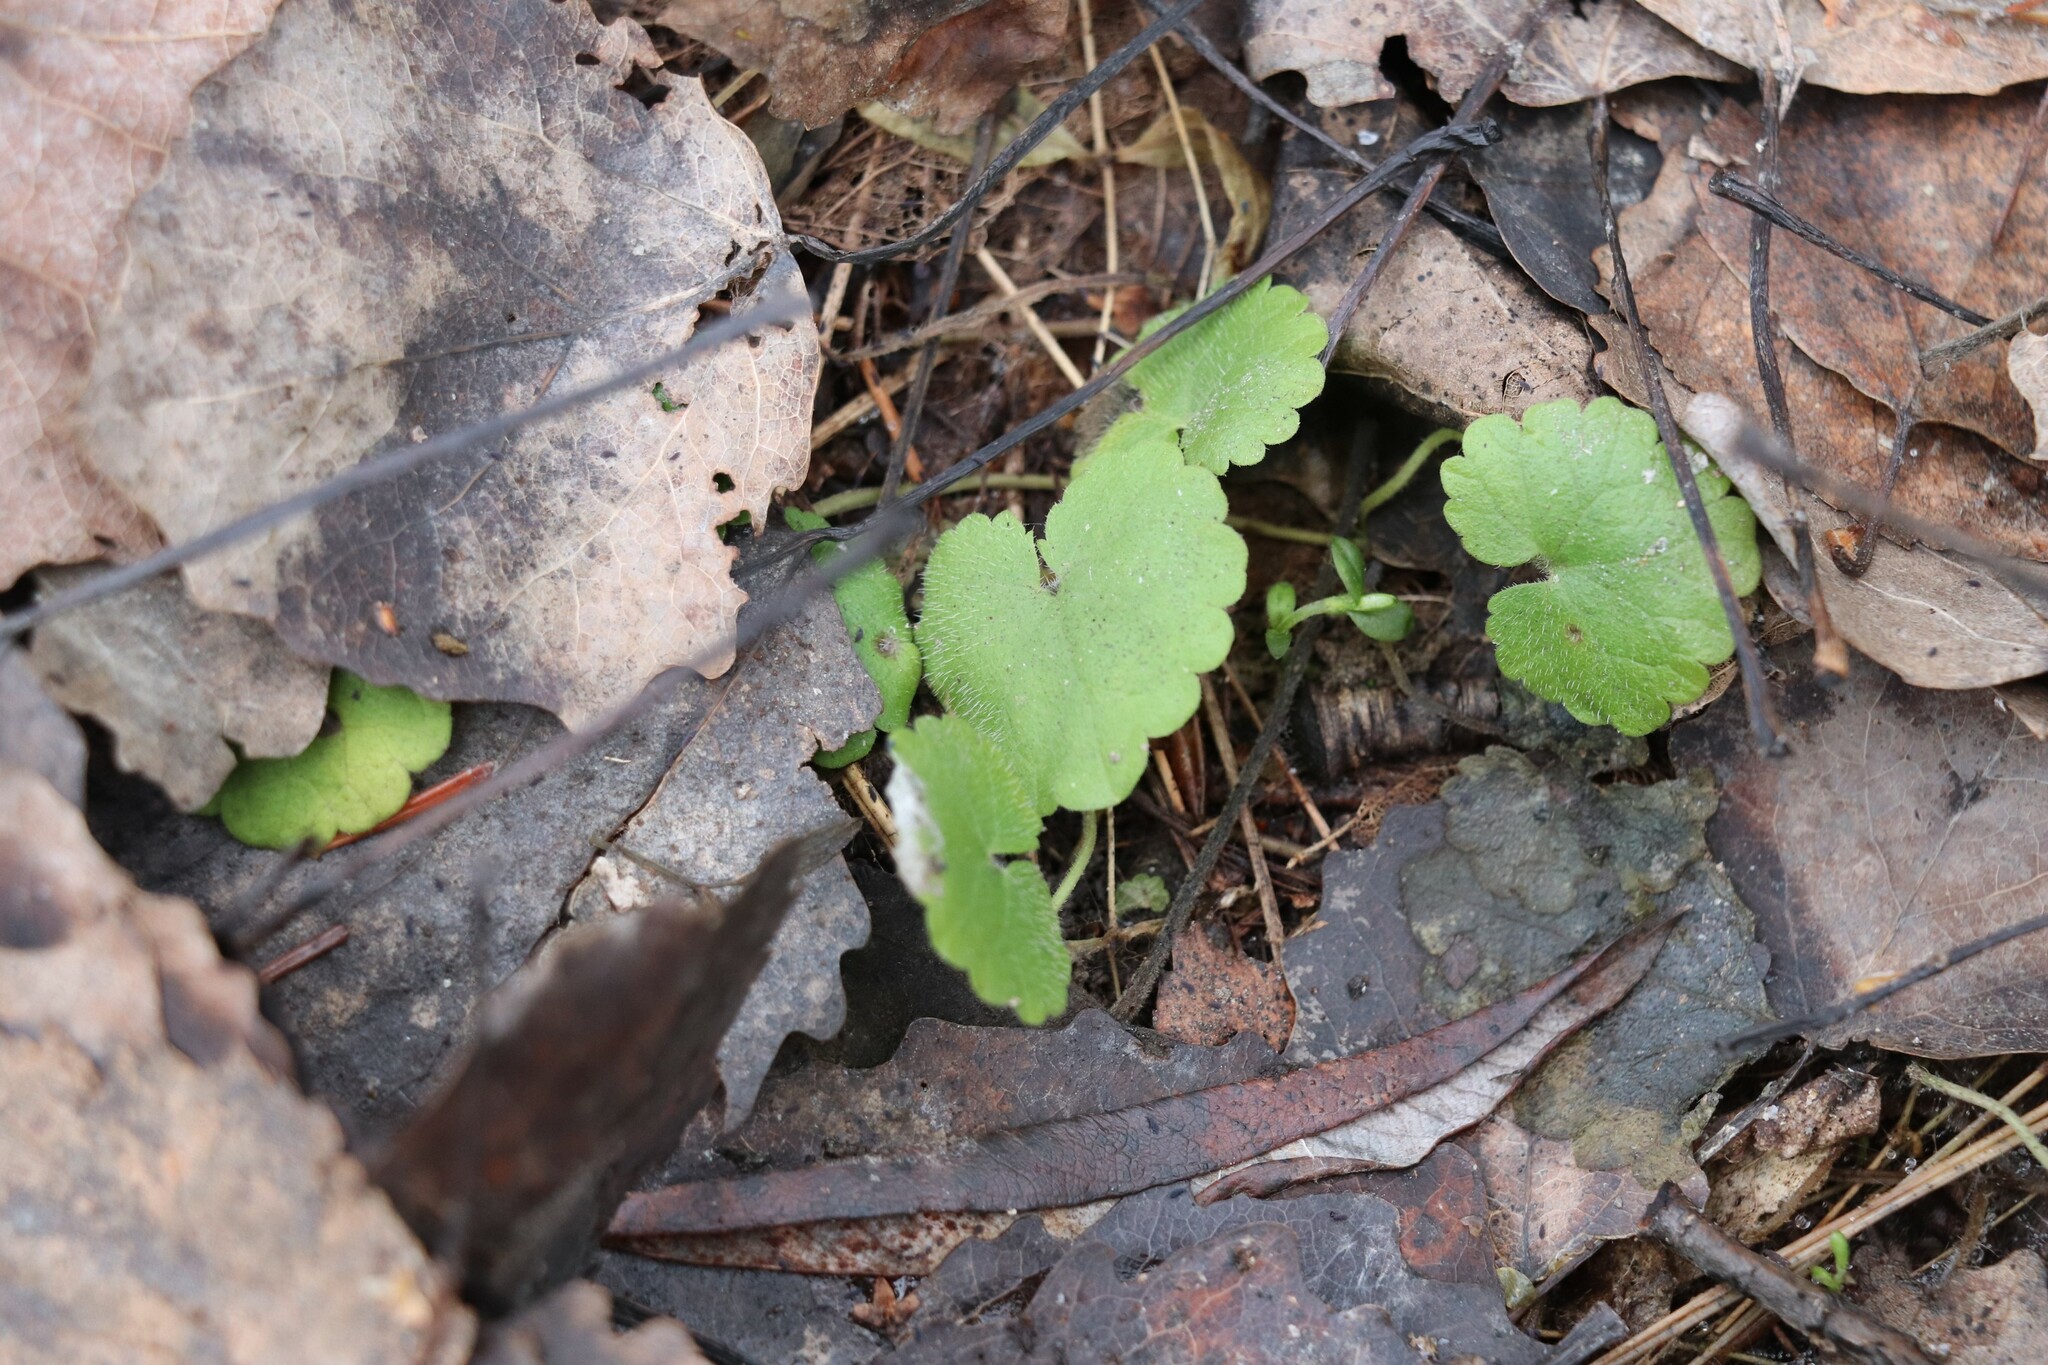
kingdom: Plantae
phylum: Tracheophyta
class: Magnoliopsida
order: Lamiales
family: Lamiaceae
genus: Glechoma
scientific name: Glechoma hederacea
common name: Ground ivy
